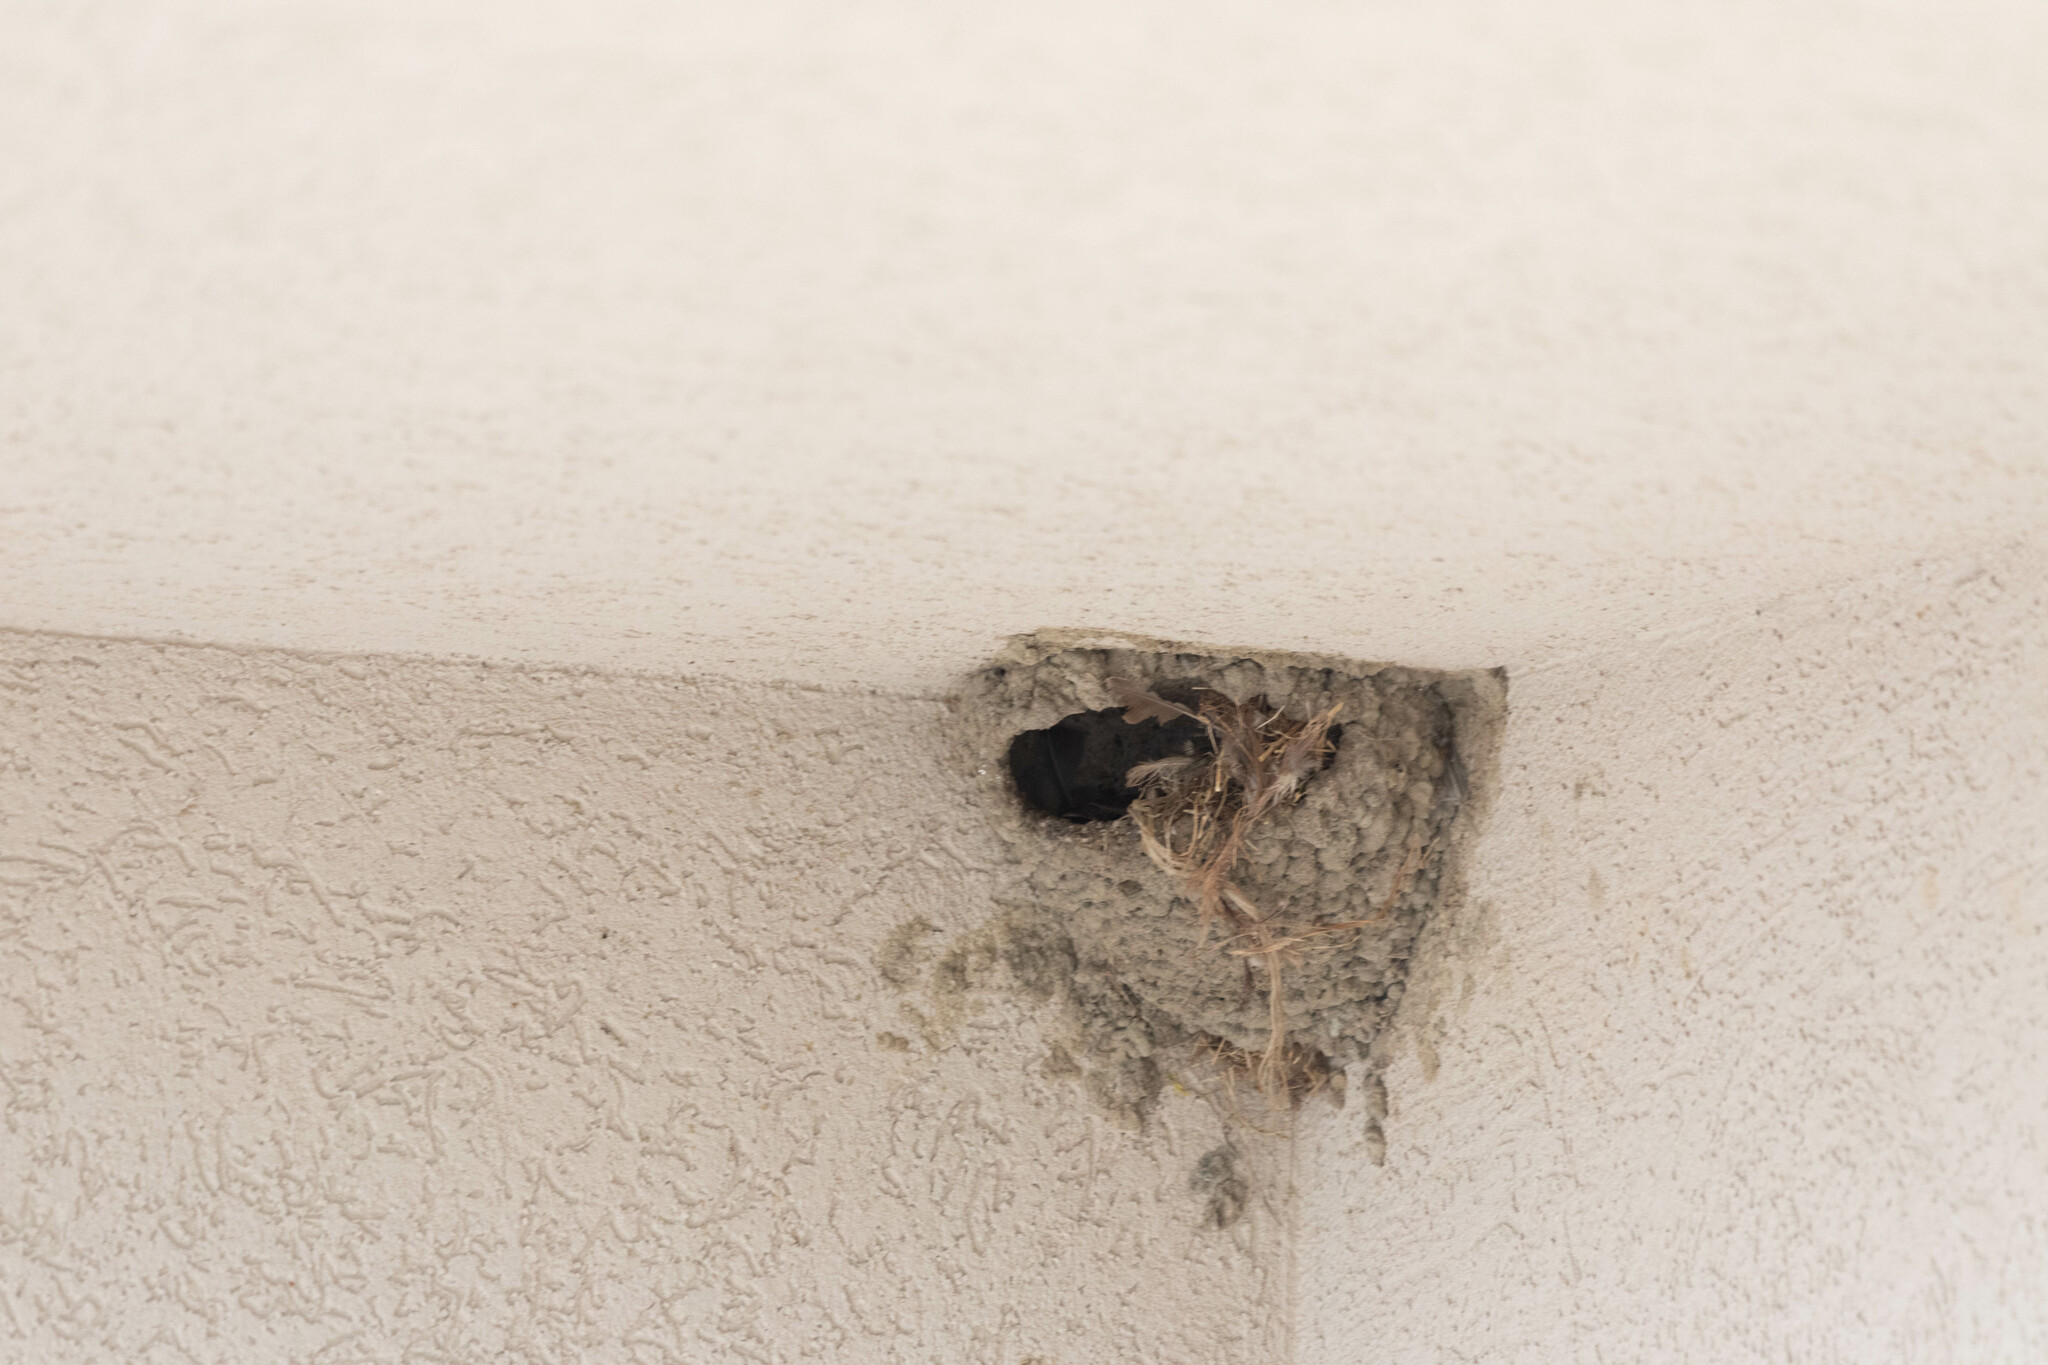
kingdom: Animalia
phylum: Chordata
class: Aves
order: Passeriformes
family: Hirundinidae
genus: Petrochelidon
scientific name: Petrochelidon pyrrhonota
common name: American cliff swallow
